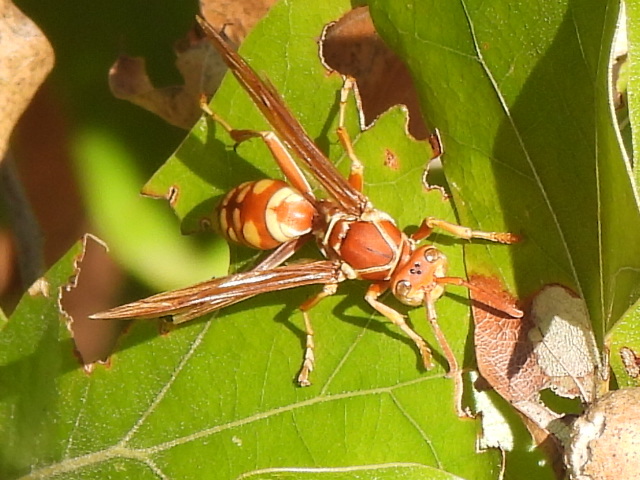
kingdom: Animalia
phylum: Arthropoda
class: Insecta
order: Hymenoptera
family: Eumenidae
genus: Polistes
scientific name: Polistes apachus
